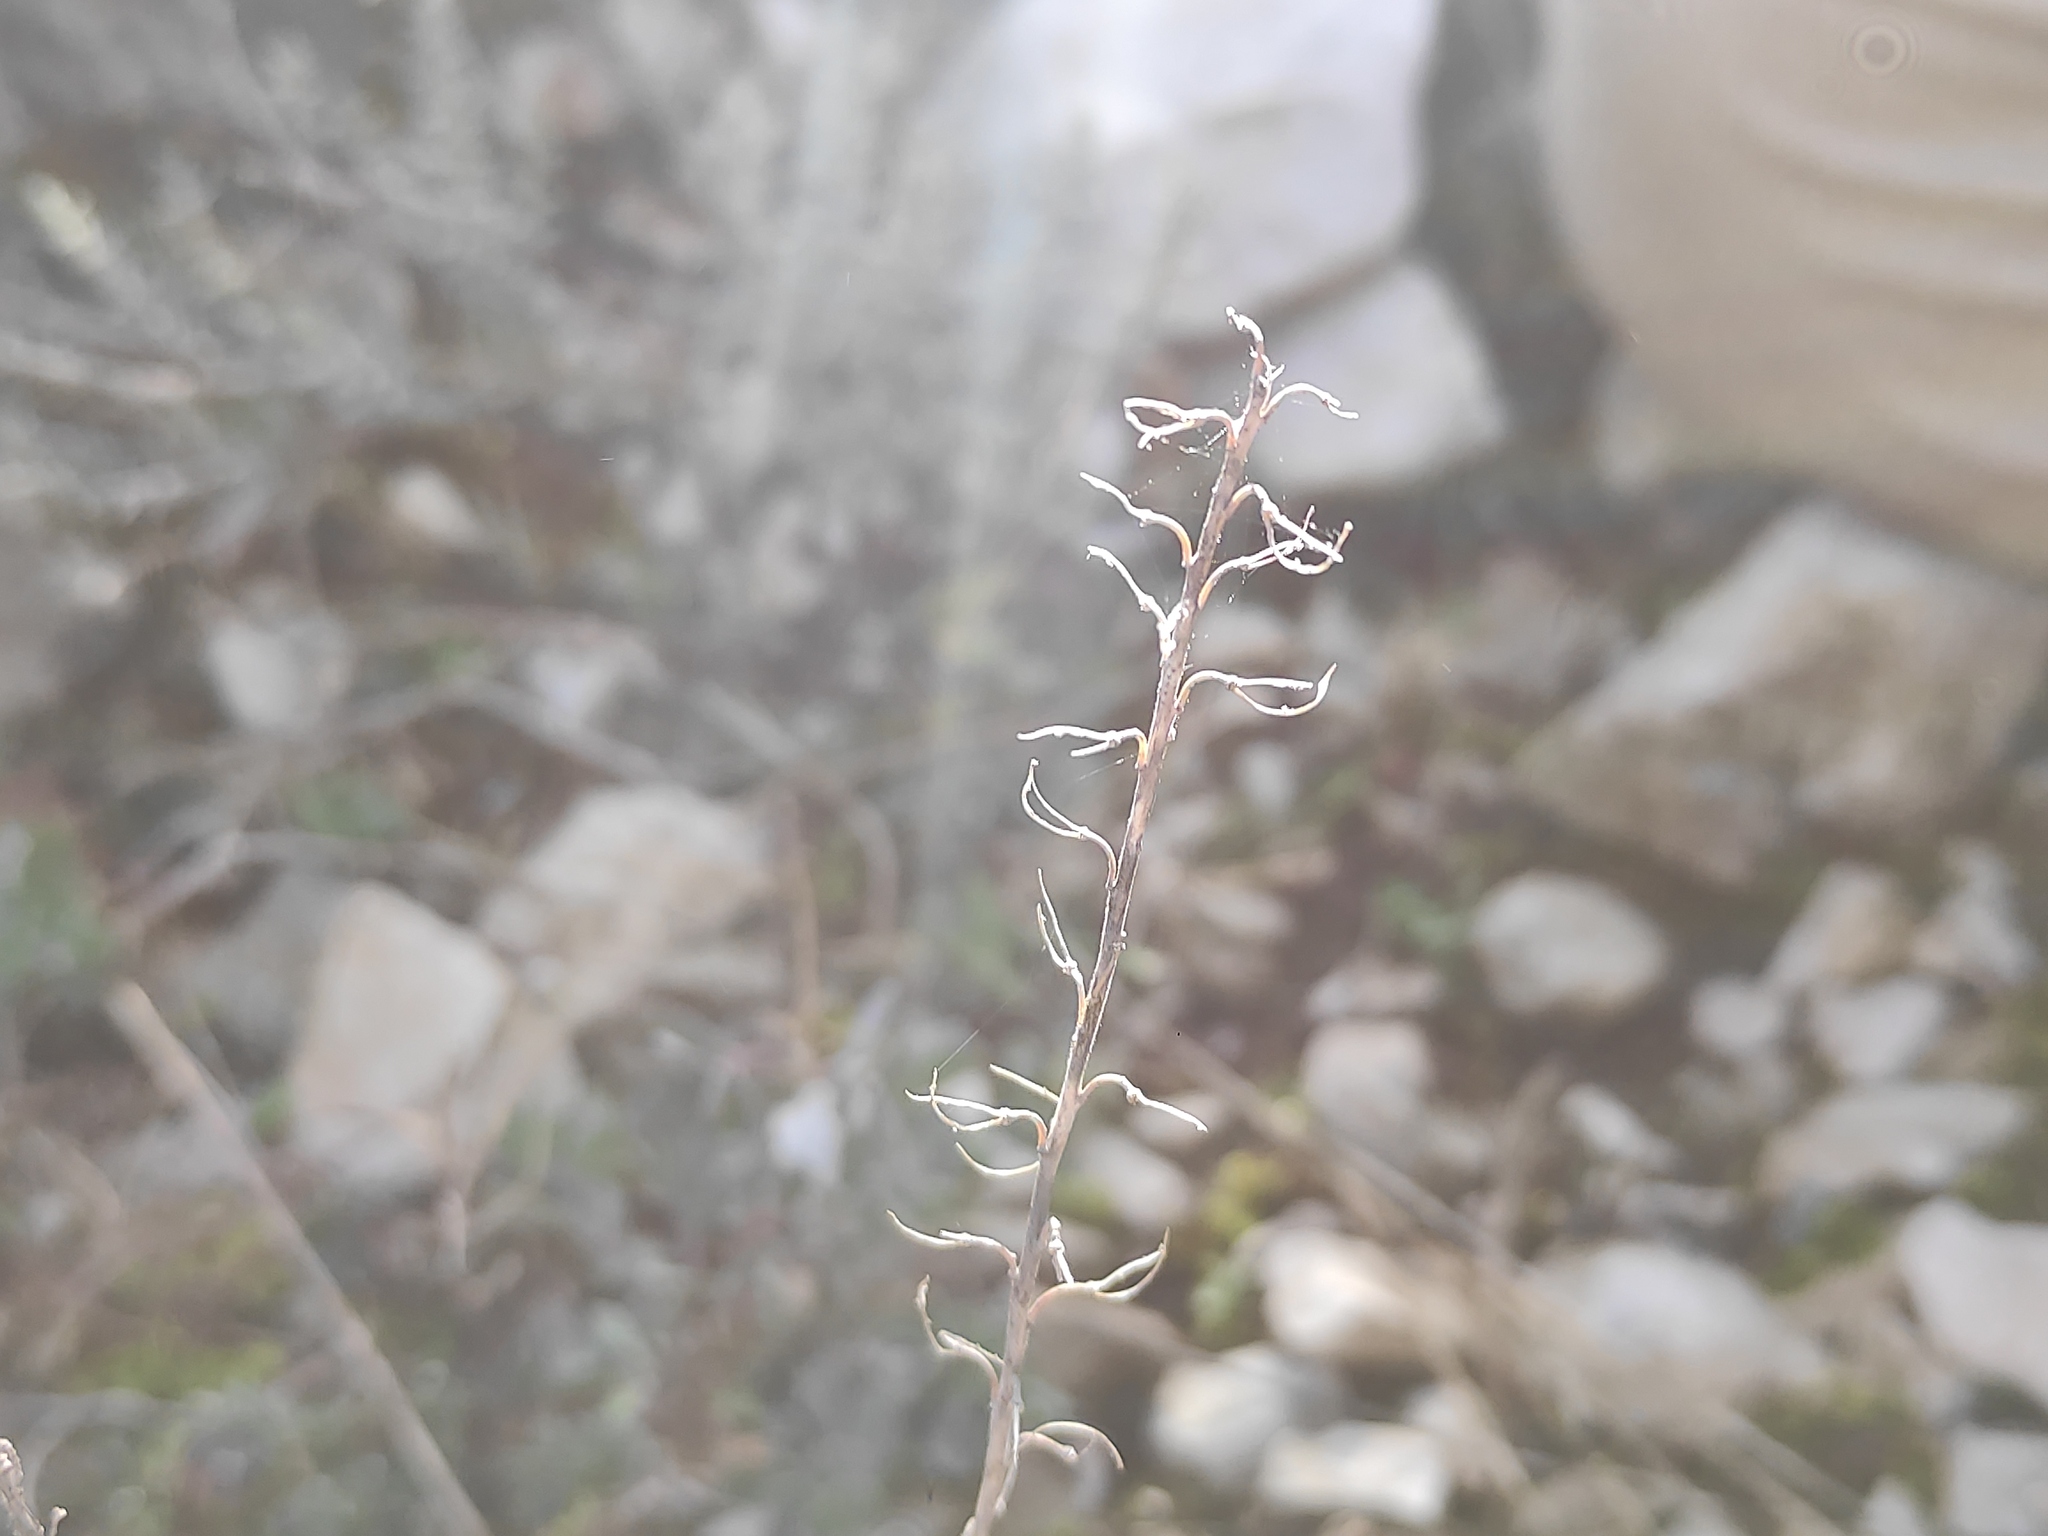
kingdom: Plantae
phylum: Tracheophyta
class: Magnoliopsida
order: Brassicales
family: Brassicaceae
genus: Aethionema
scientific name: Aethionema saxatile
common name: Burnt candytuft
